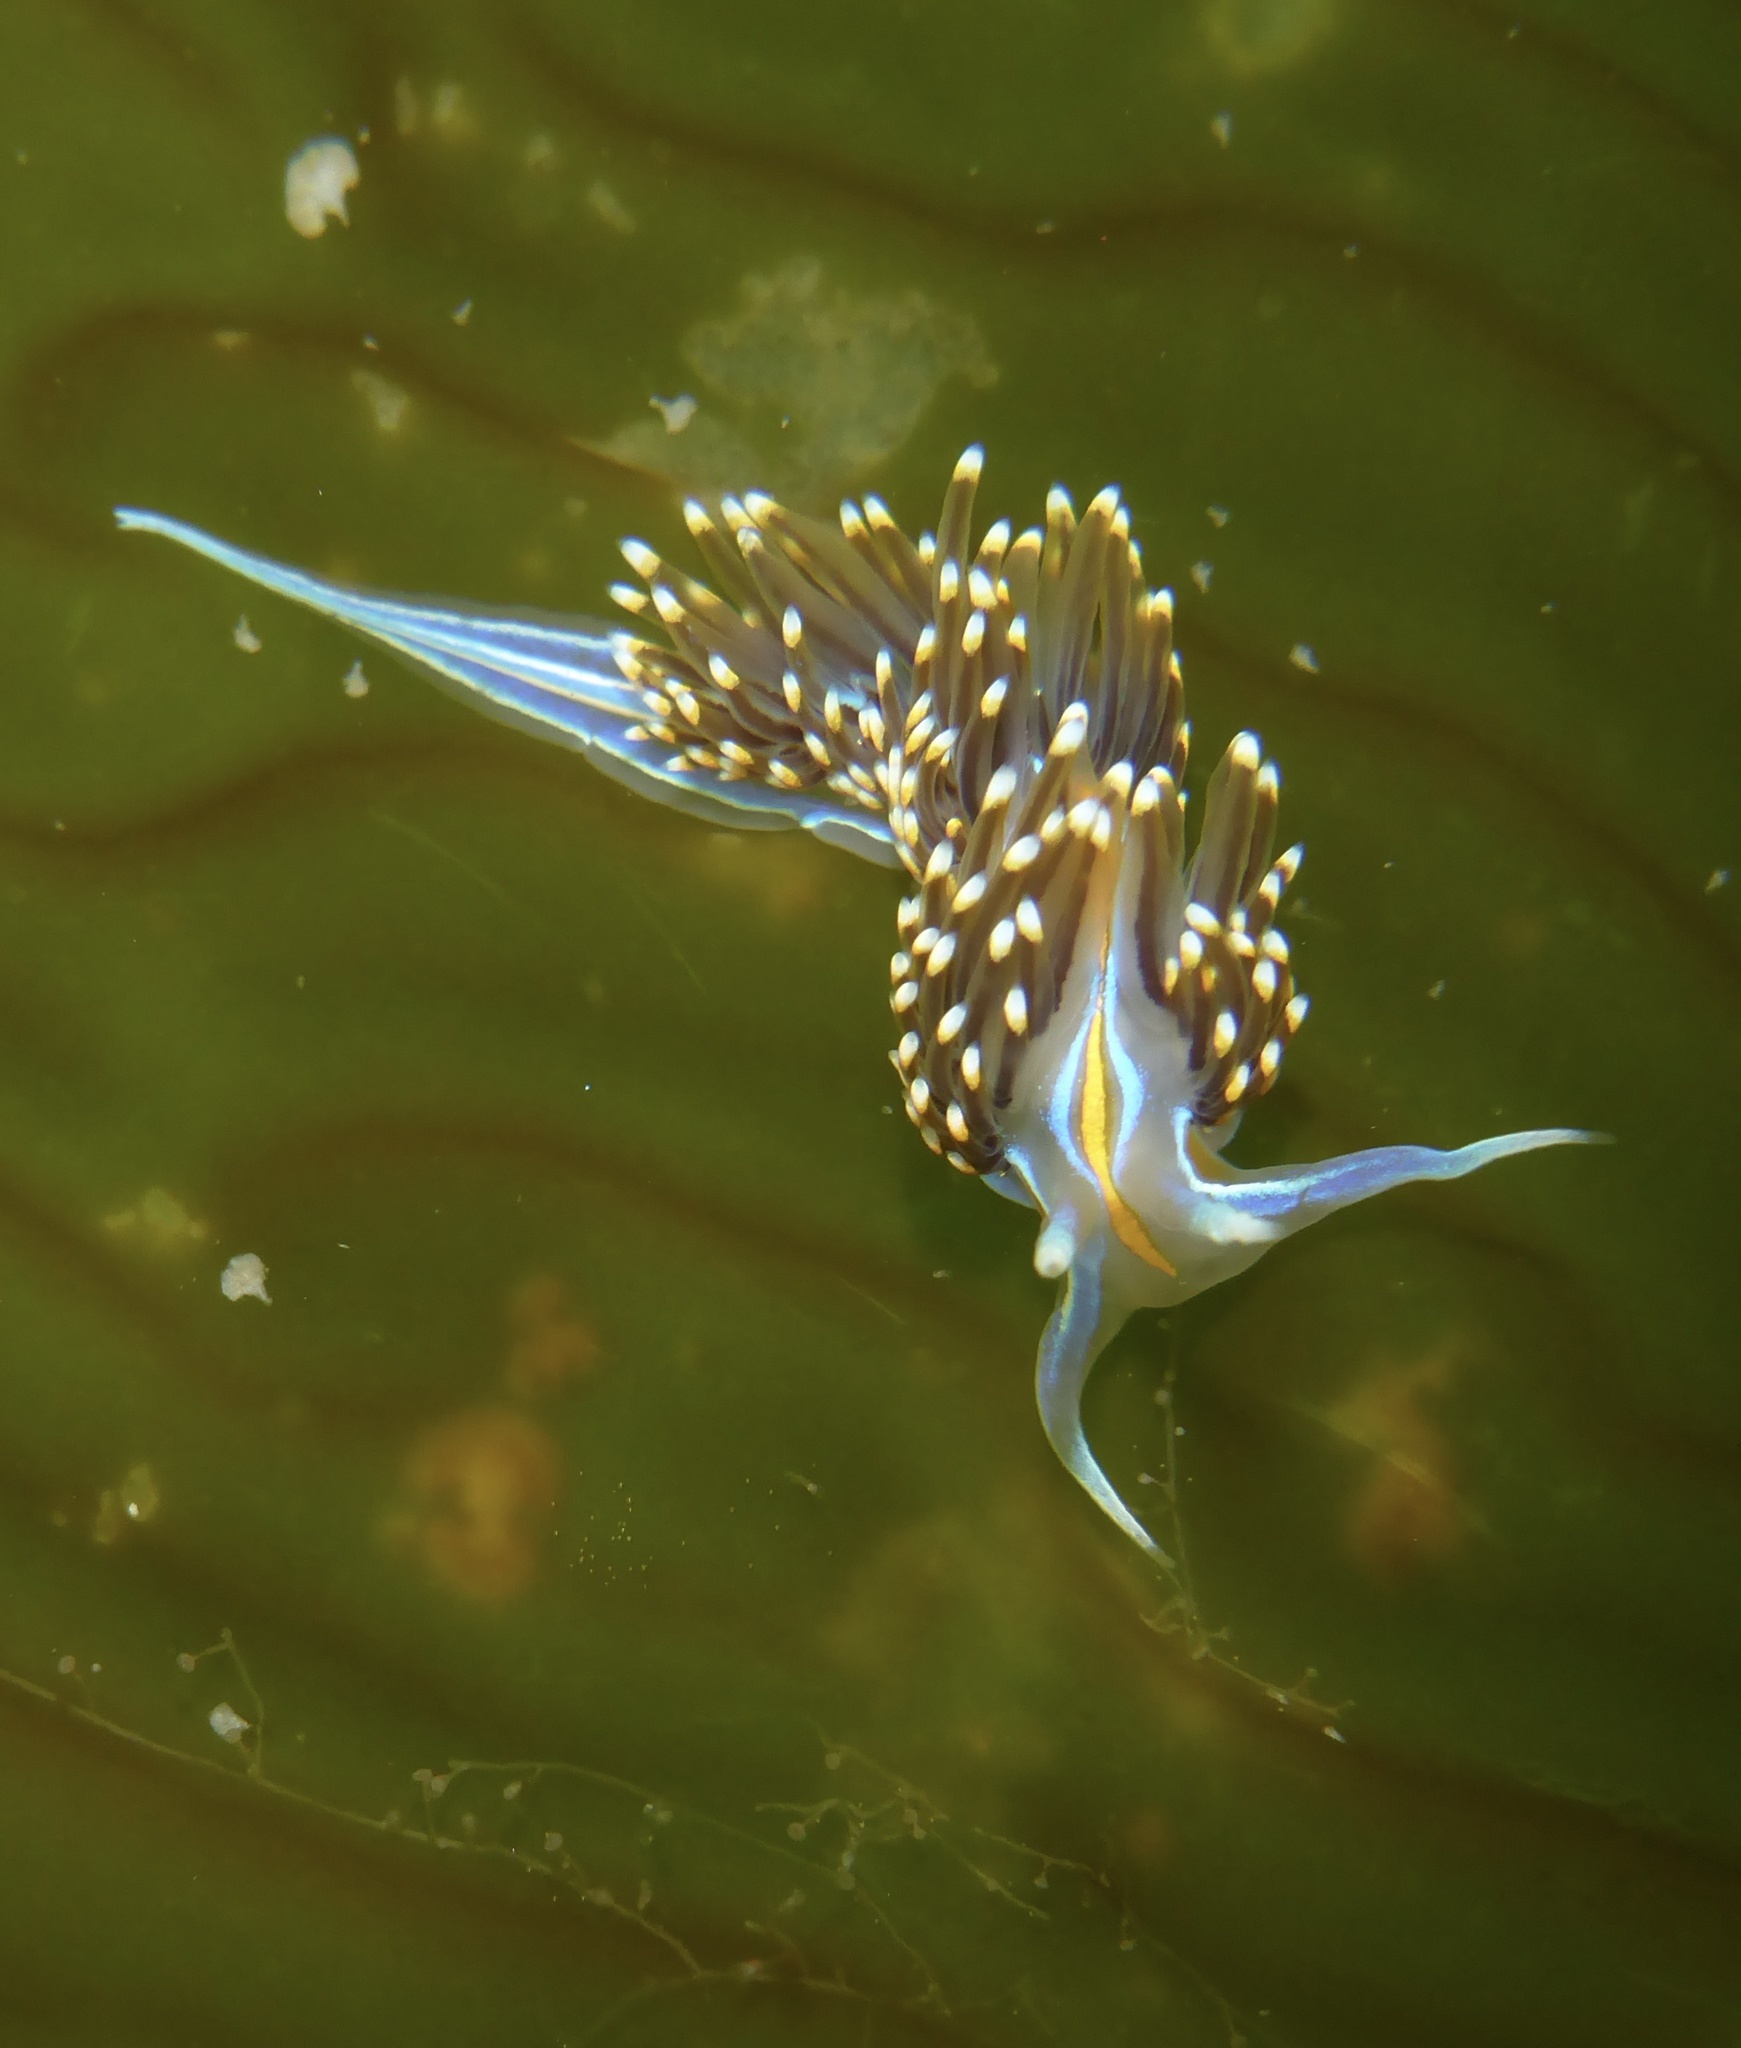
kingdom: Animalia
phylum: Mollusca
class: Gastropoda
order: Nudibranchia
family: Myrrhinidae
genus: Hermissenda
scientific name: Hermissenda opalescens
